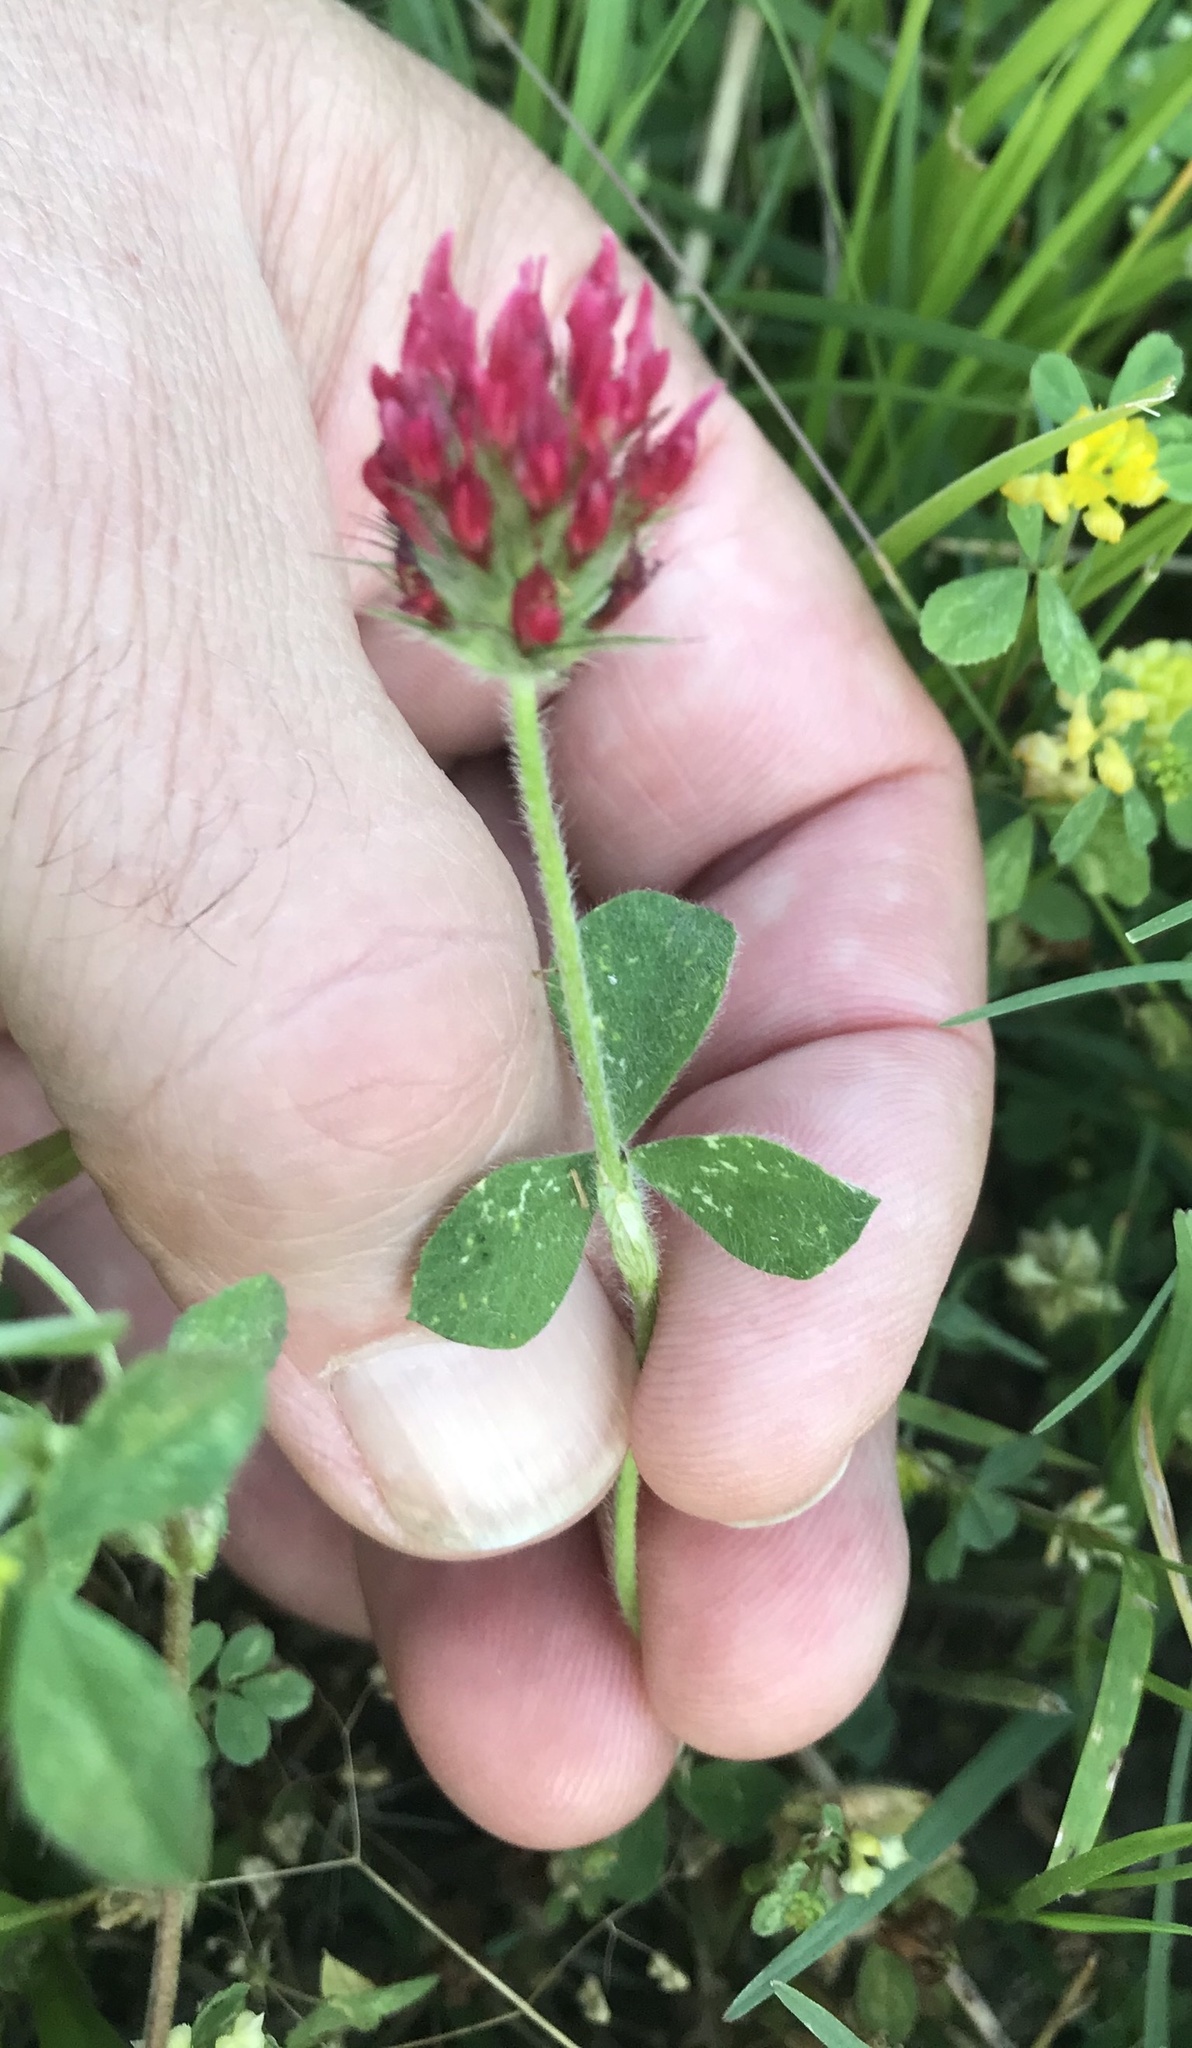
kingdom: Plantae
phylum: Tracheophyta
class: Magnoliopsida
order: Fabales
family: Fabaceae
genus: Trifolium
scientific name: Trifolium incarnatum
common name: Crimson clover
